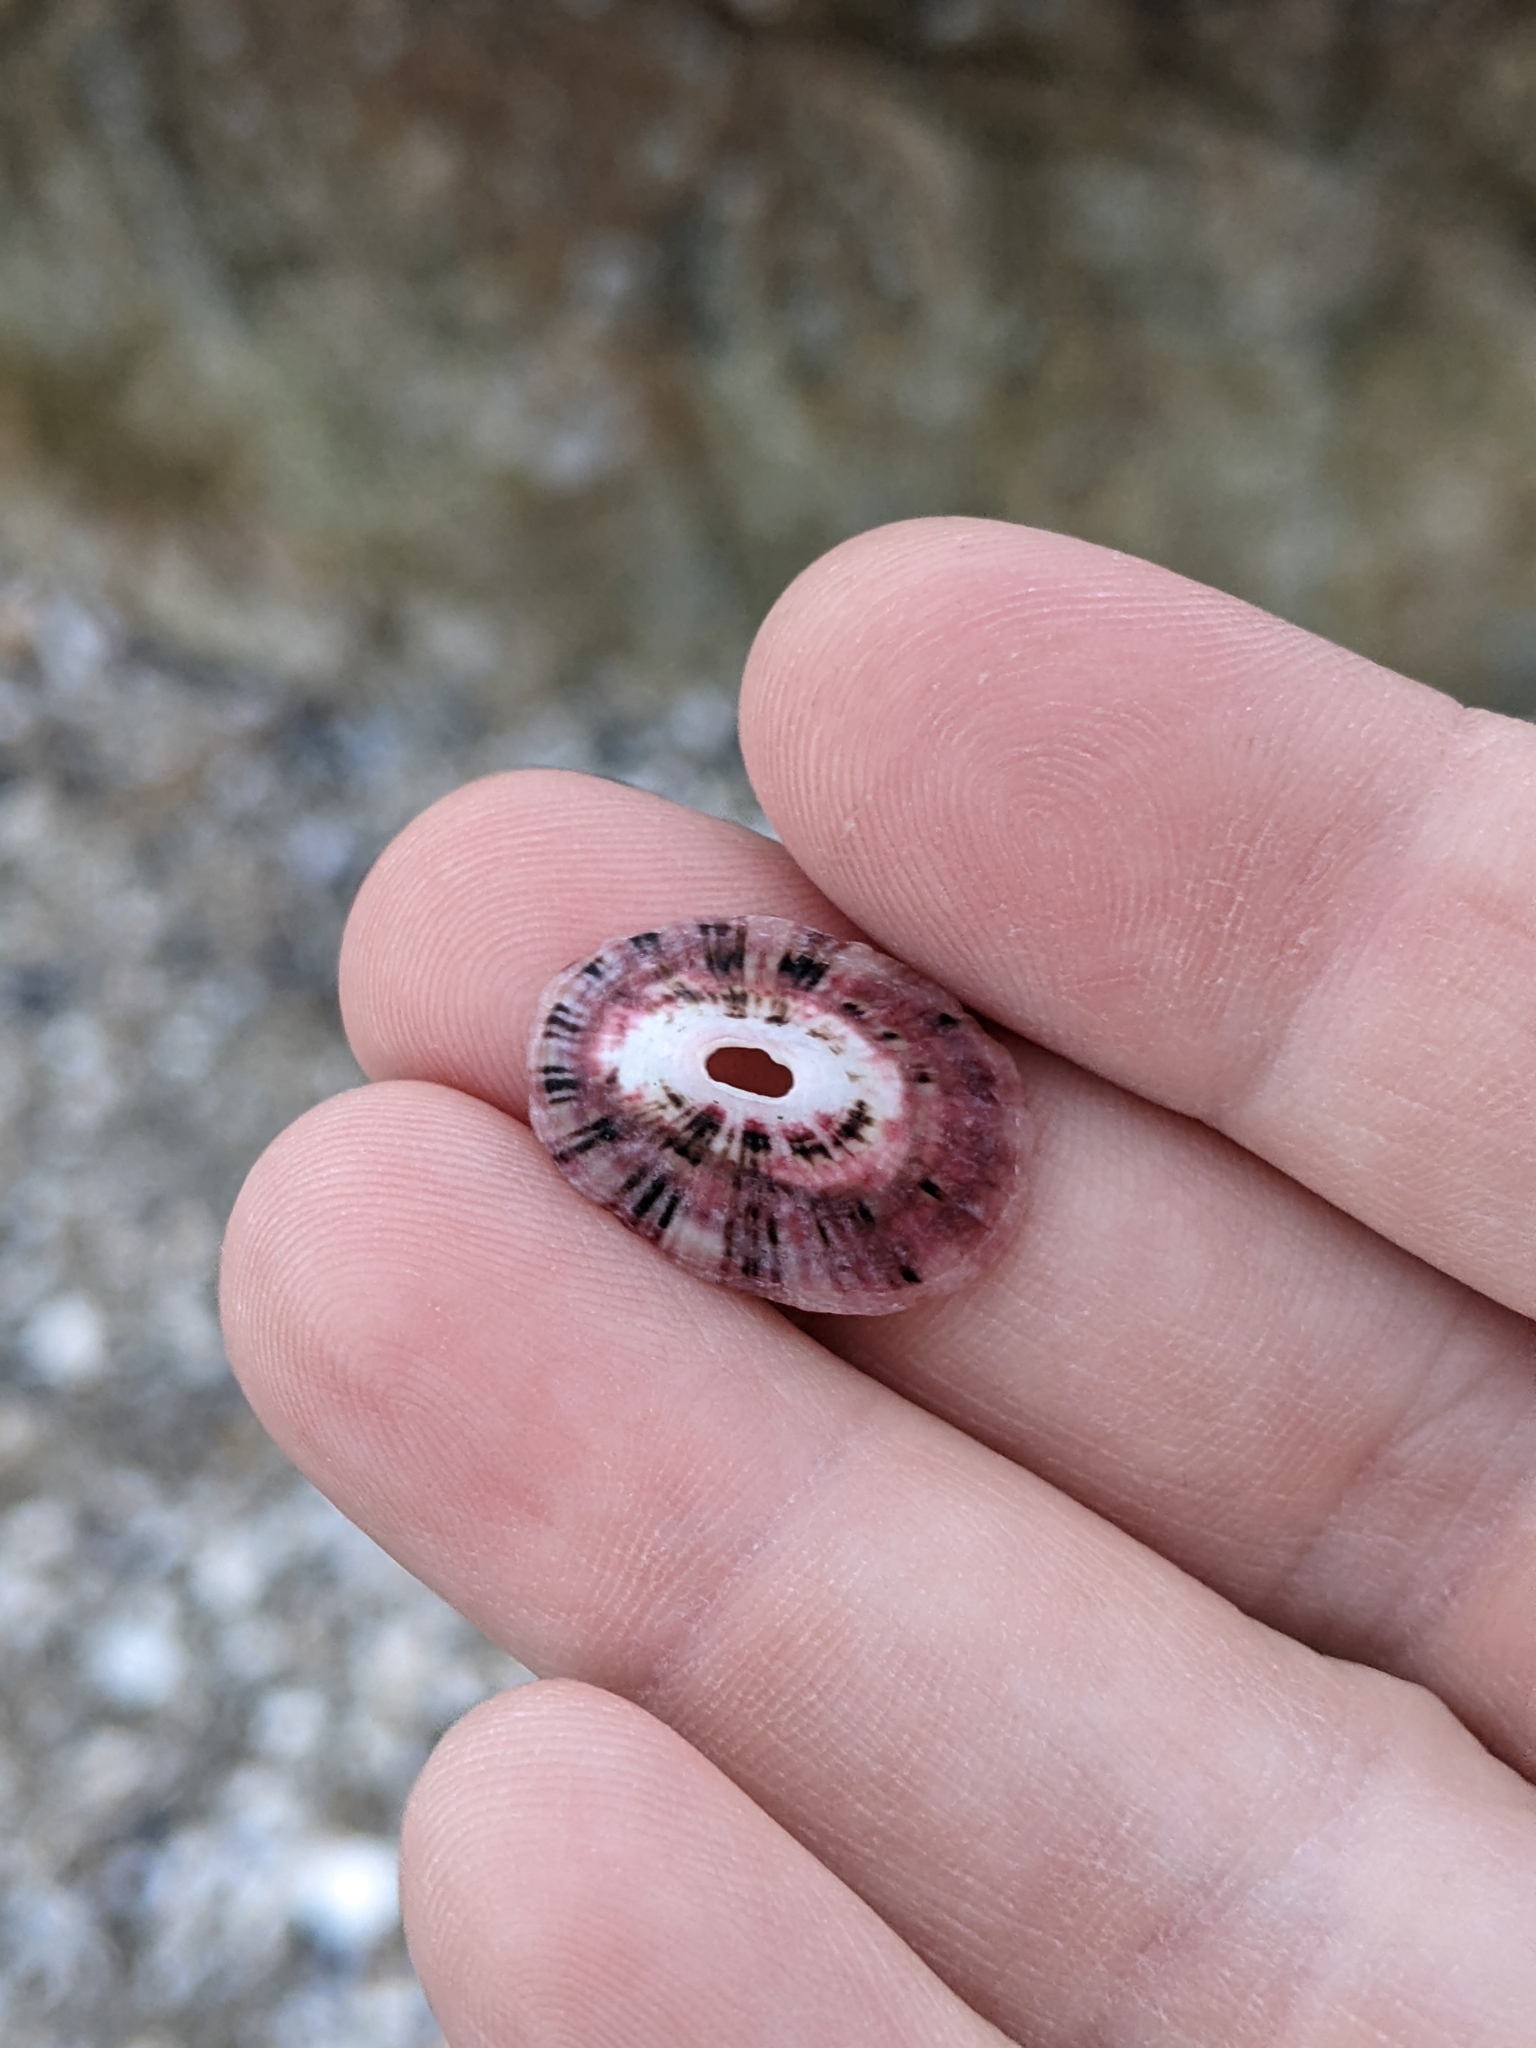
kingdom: Animalia
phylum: Mollusca
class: Gastropoda
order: Lepetellida
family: Fissurellidae
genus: Fissurella
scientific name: Fissurella volcano
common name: Volcano keyhole limpet
